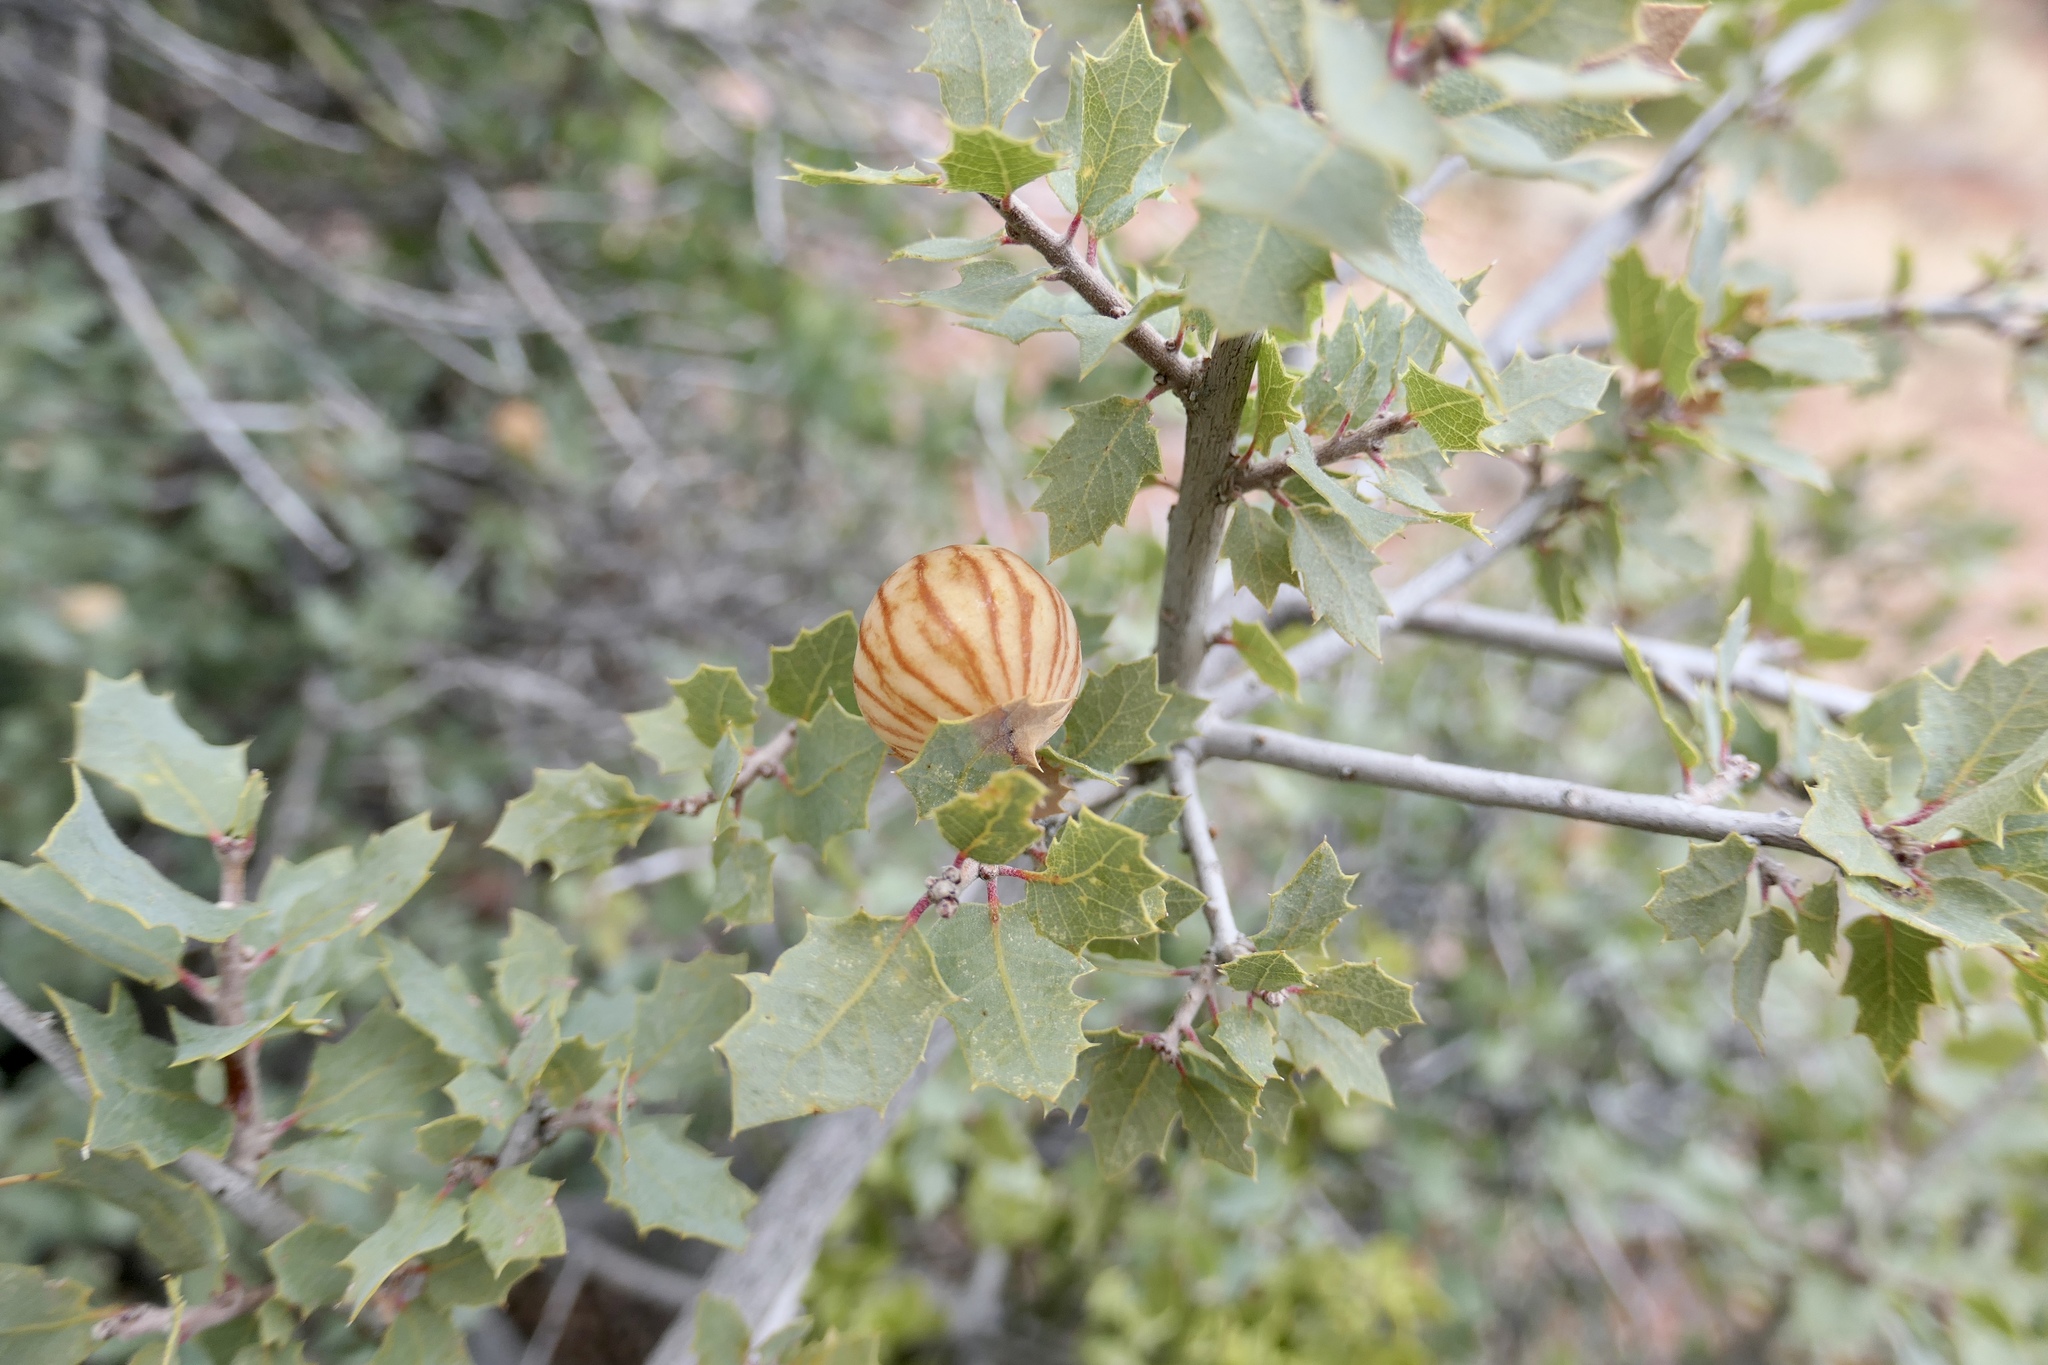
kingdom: Plantae
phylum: Tracheophyta
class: Magnoliopsida
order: Fagales
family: Fagaceae
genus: Quercus
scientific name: Quercus turbinella
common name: Sonoran scrub oak
